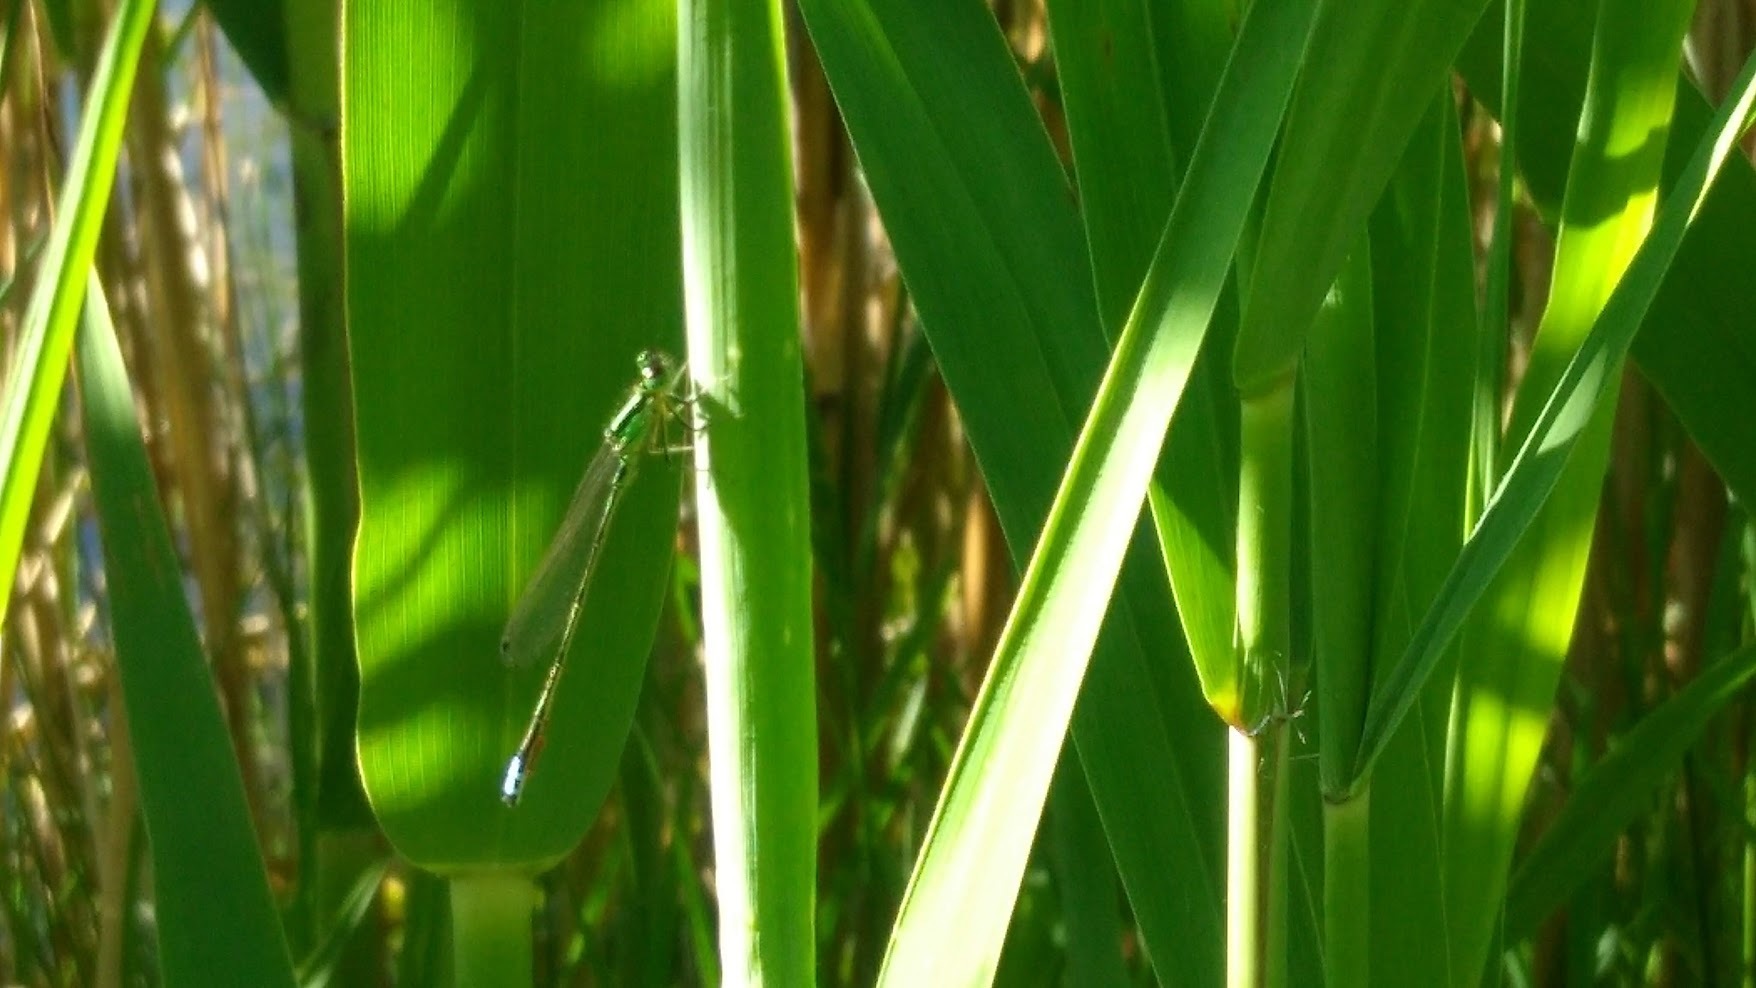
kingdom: Animalia
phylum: Arthropoda
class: Insecta
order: Odonata
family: Coenagrionidae
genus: Ischnura
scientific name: Ischnura verticalis
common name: Eastern forktail
